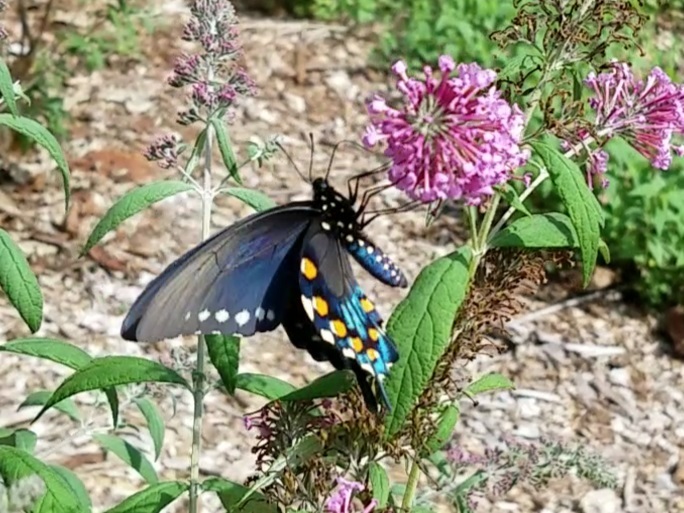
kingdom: Animalia
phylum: Arthropoda
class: Insecta
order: Lepidoptera
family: Papilionidae
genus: Battus
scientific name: Battus philenor
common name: Pipevine swallowtail
